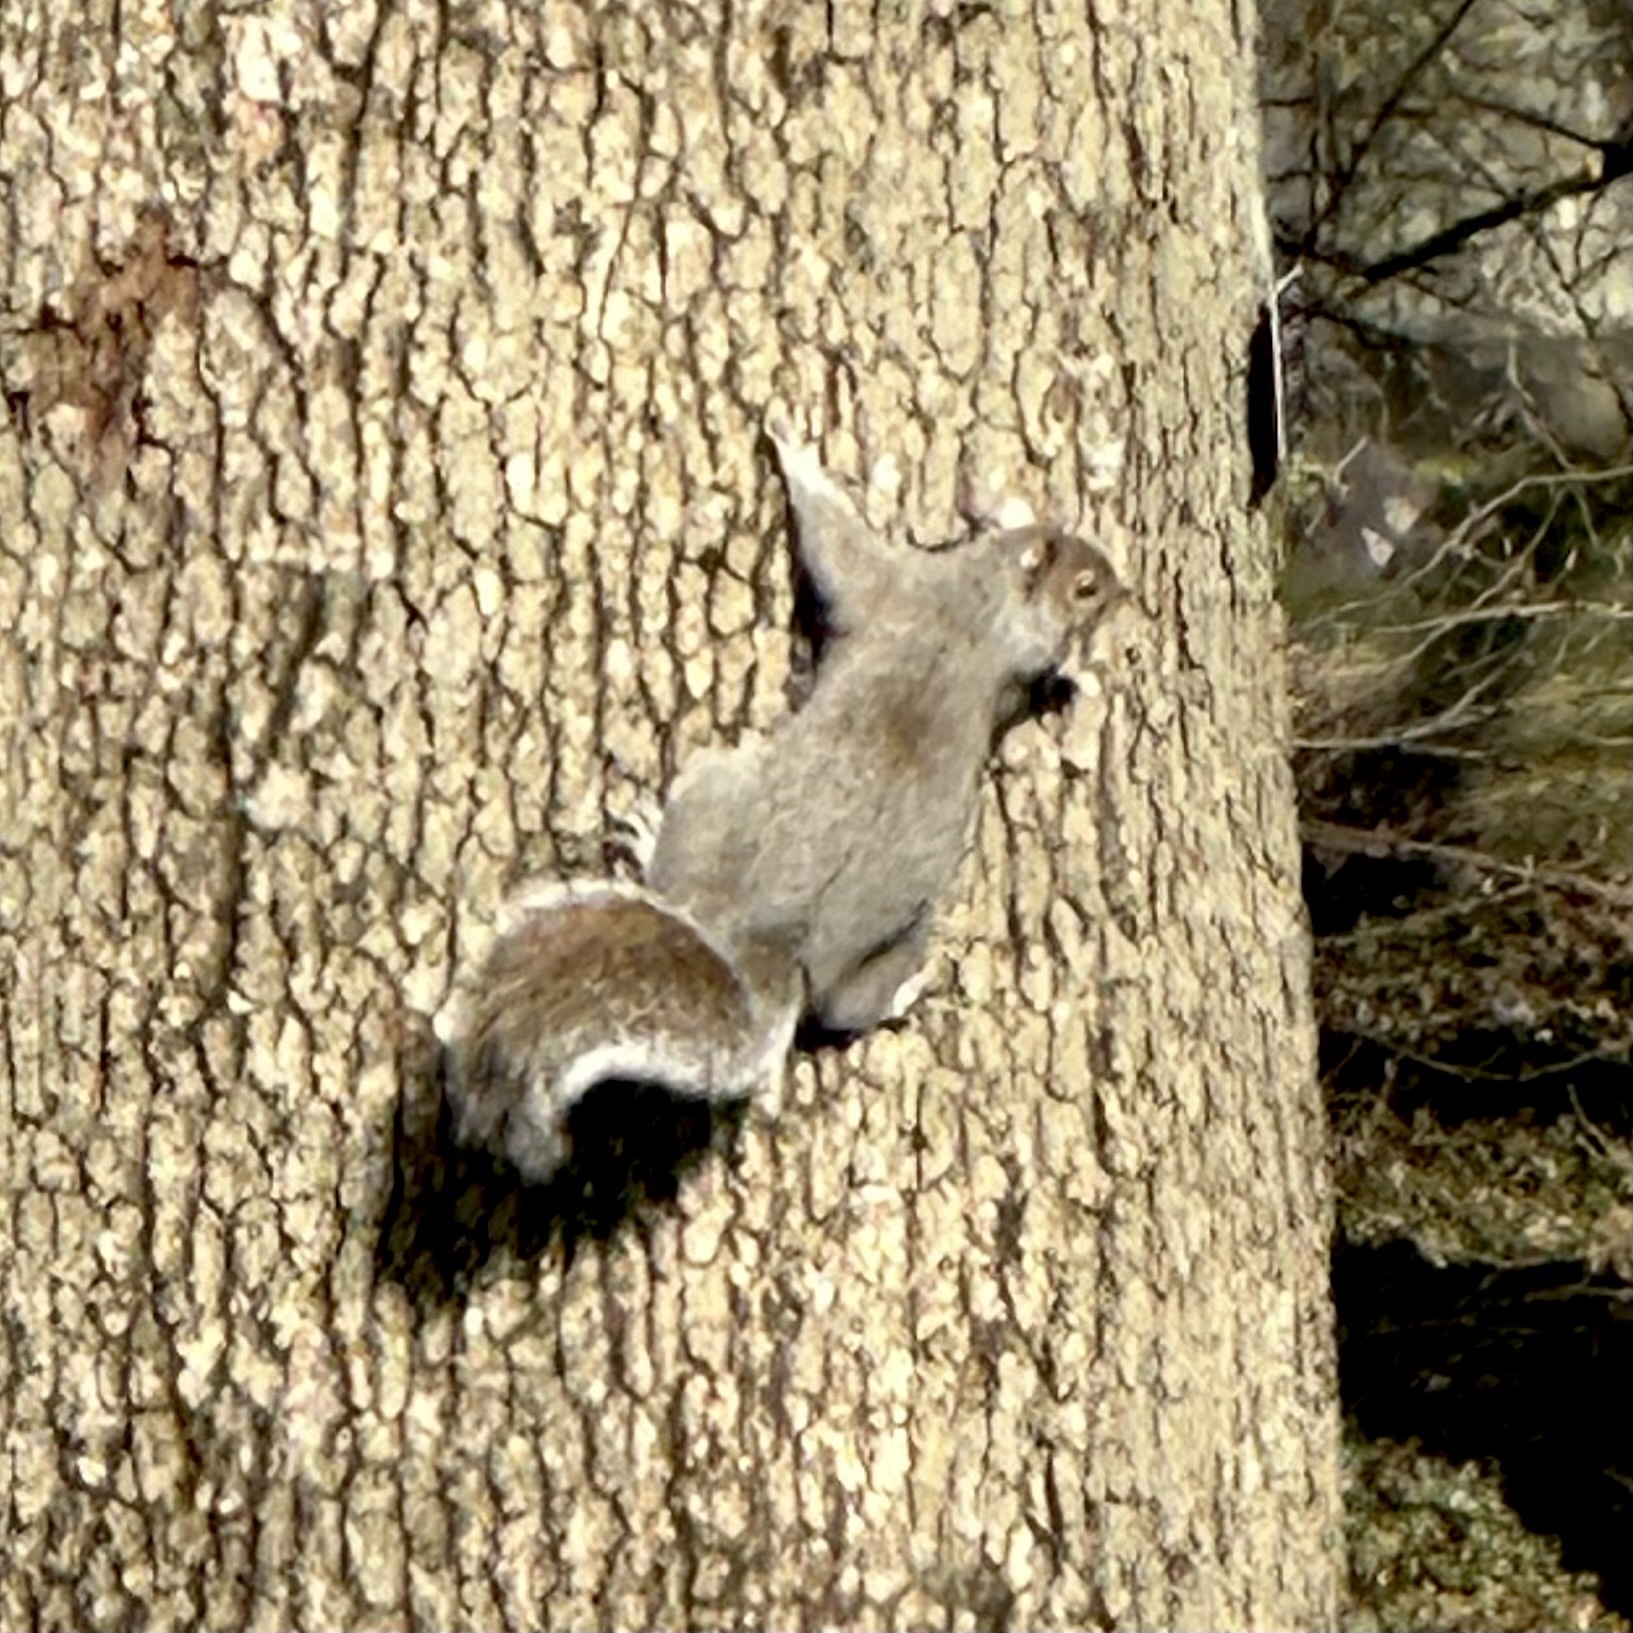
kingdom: Animalia
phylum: Chordata
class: Mammalia
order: Rodentia
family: Sciuridae
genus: Sciurus
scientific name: Sciurus carolinensis
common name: Eastern gray squirrel
